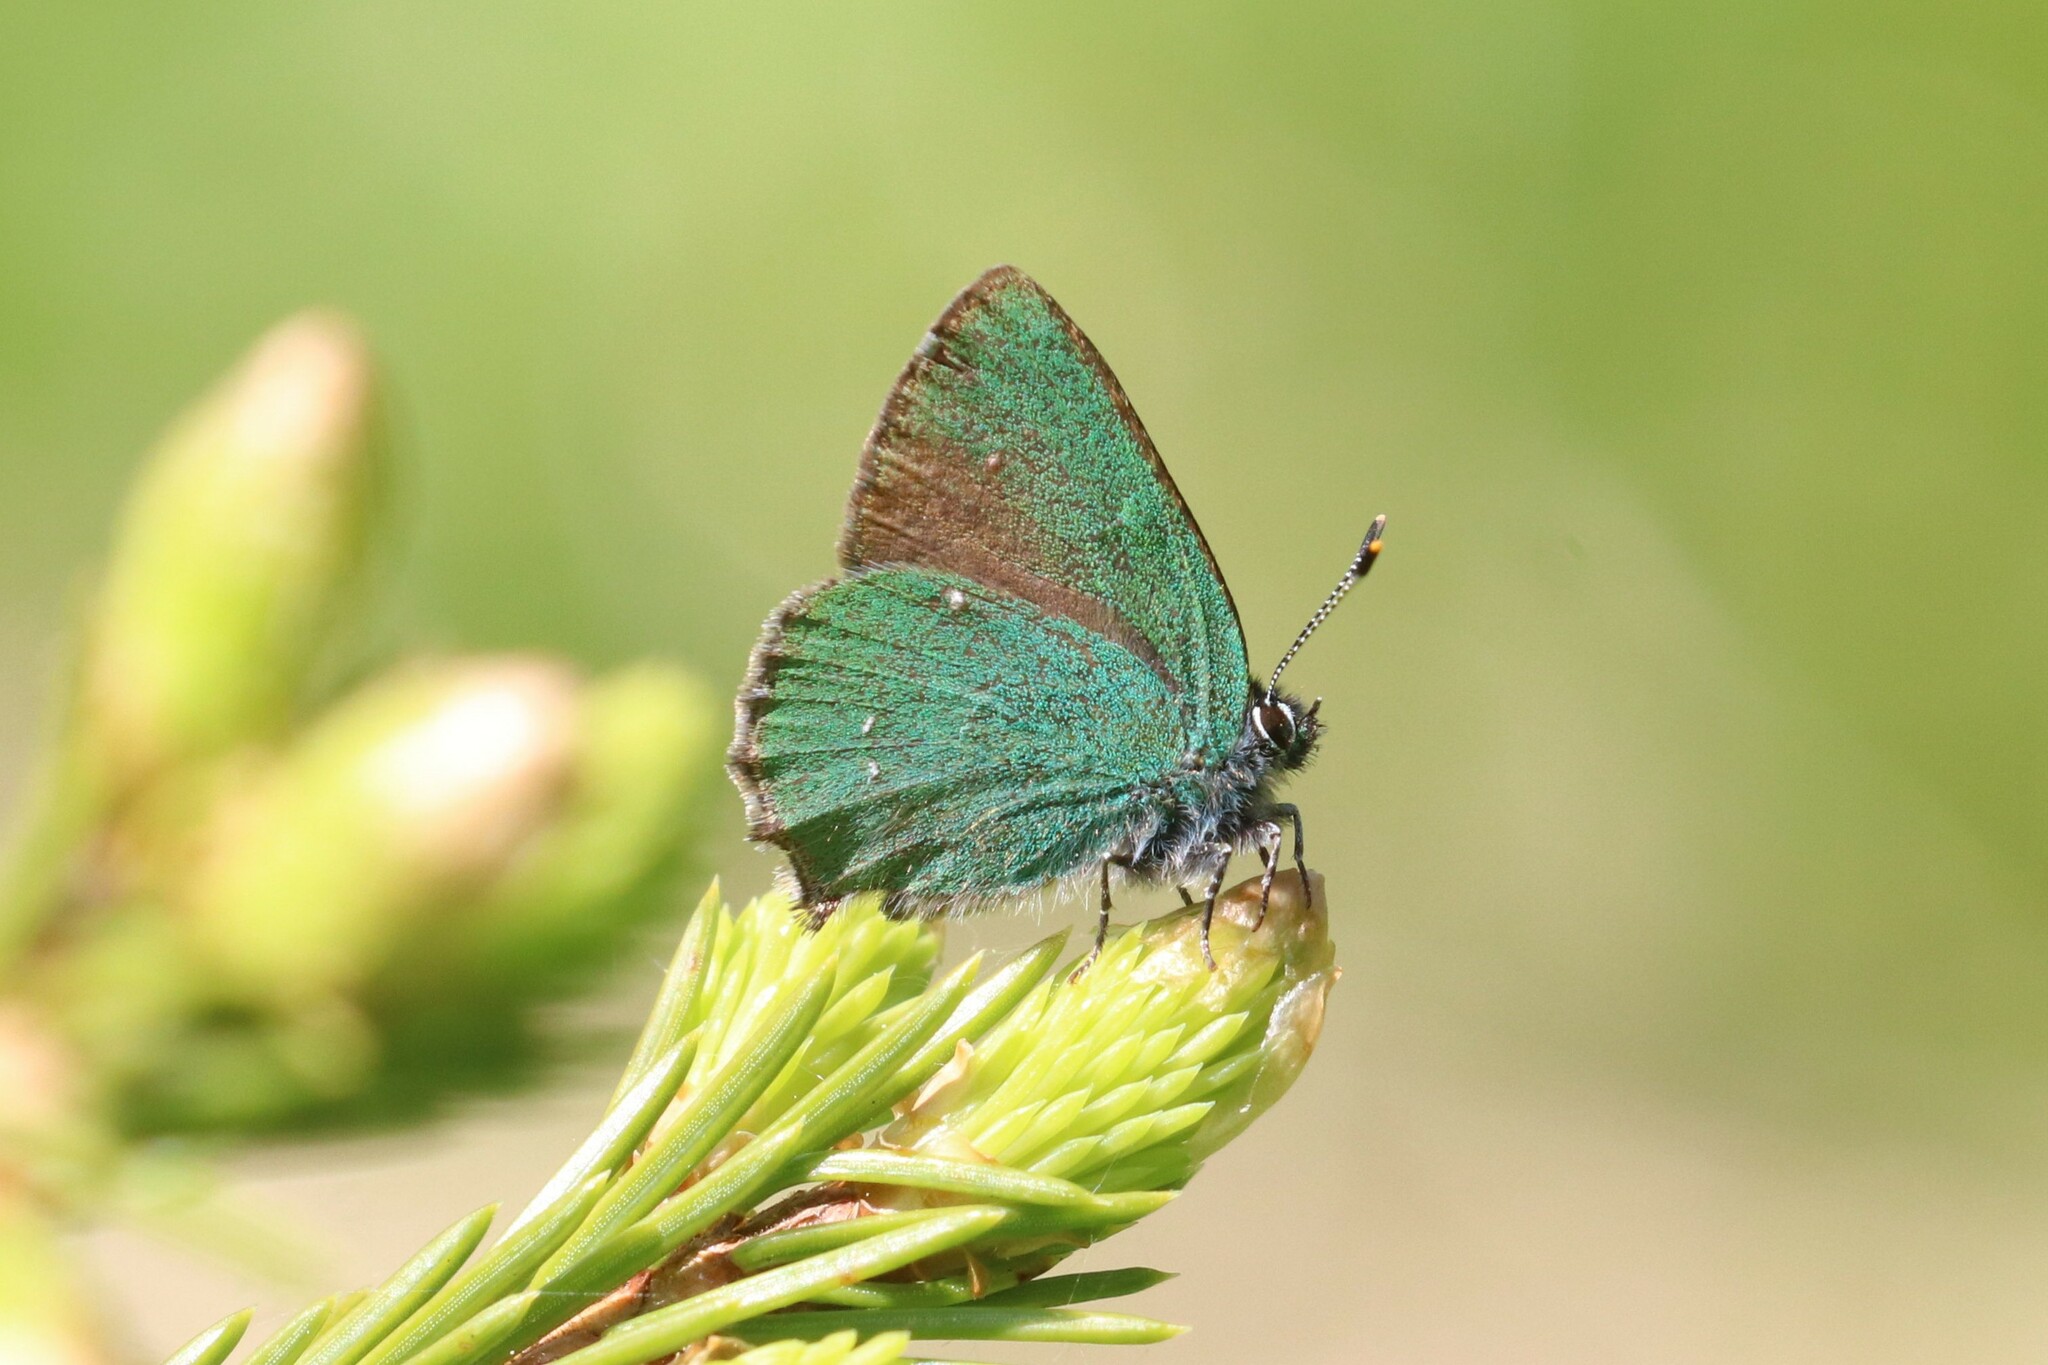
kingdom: Animalia
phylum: Arthropoda
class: Insecta
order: Lepidoptera
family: Lycaenidae
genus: Callophrys
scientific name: Callophrys rubi
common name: Green hairstreak
